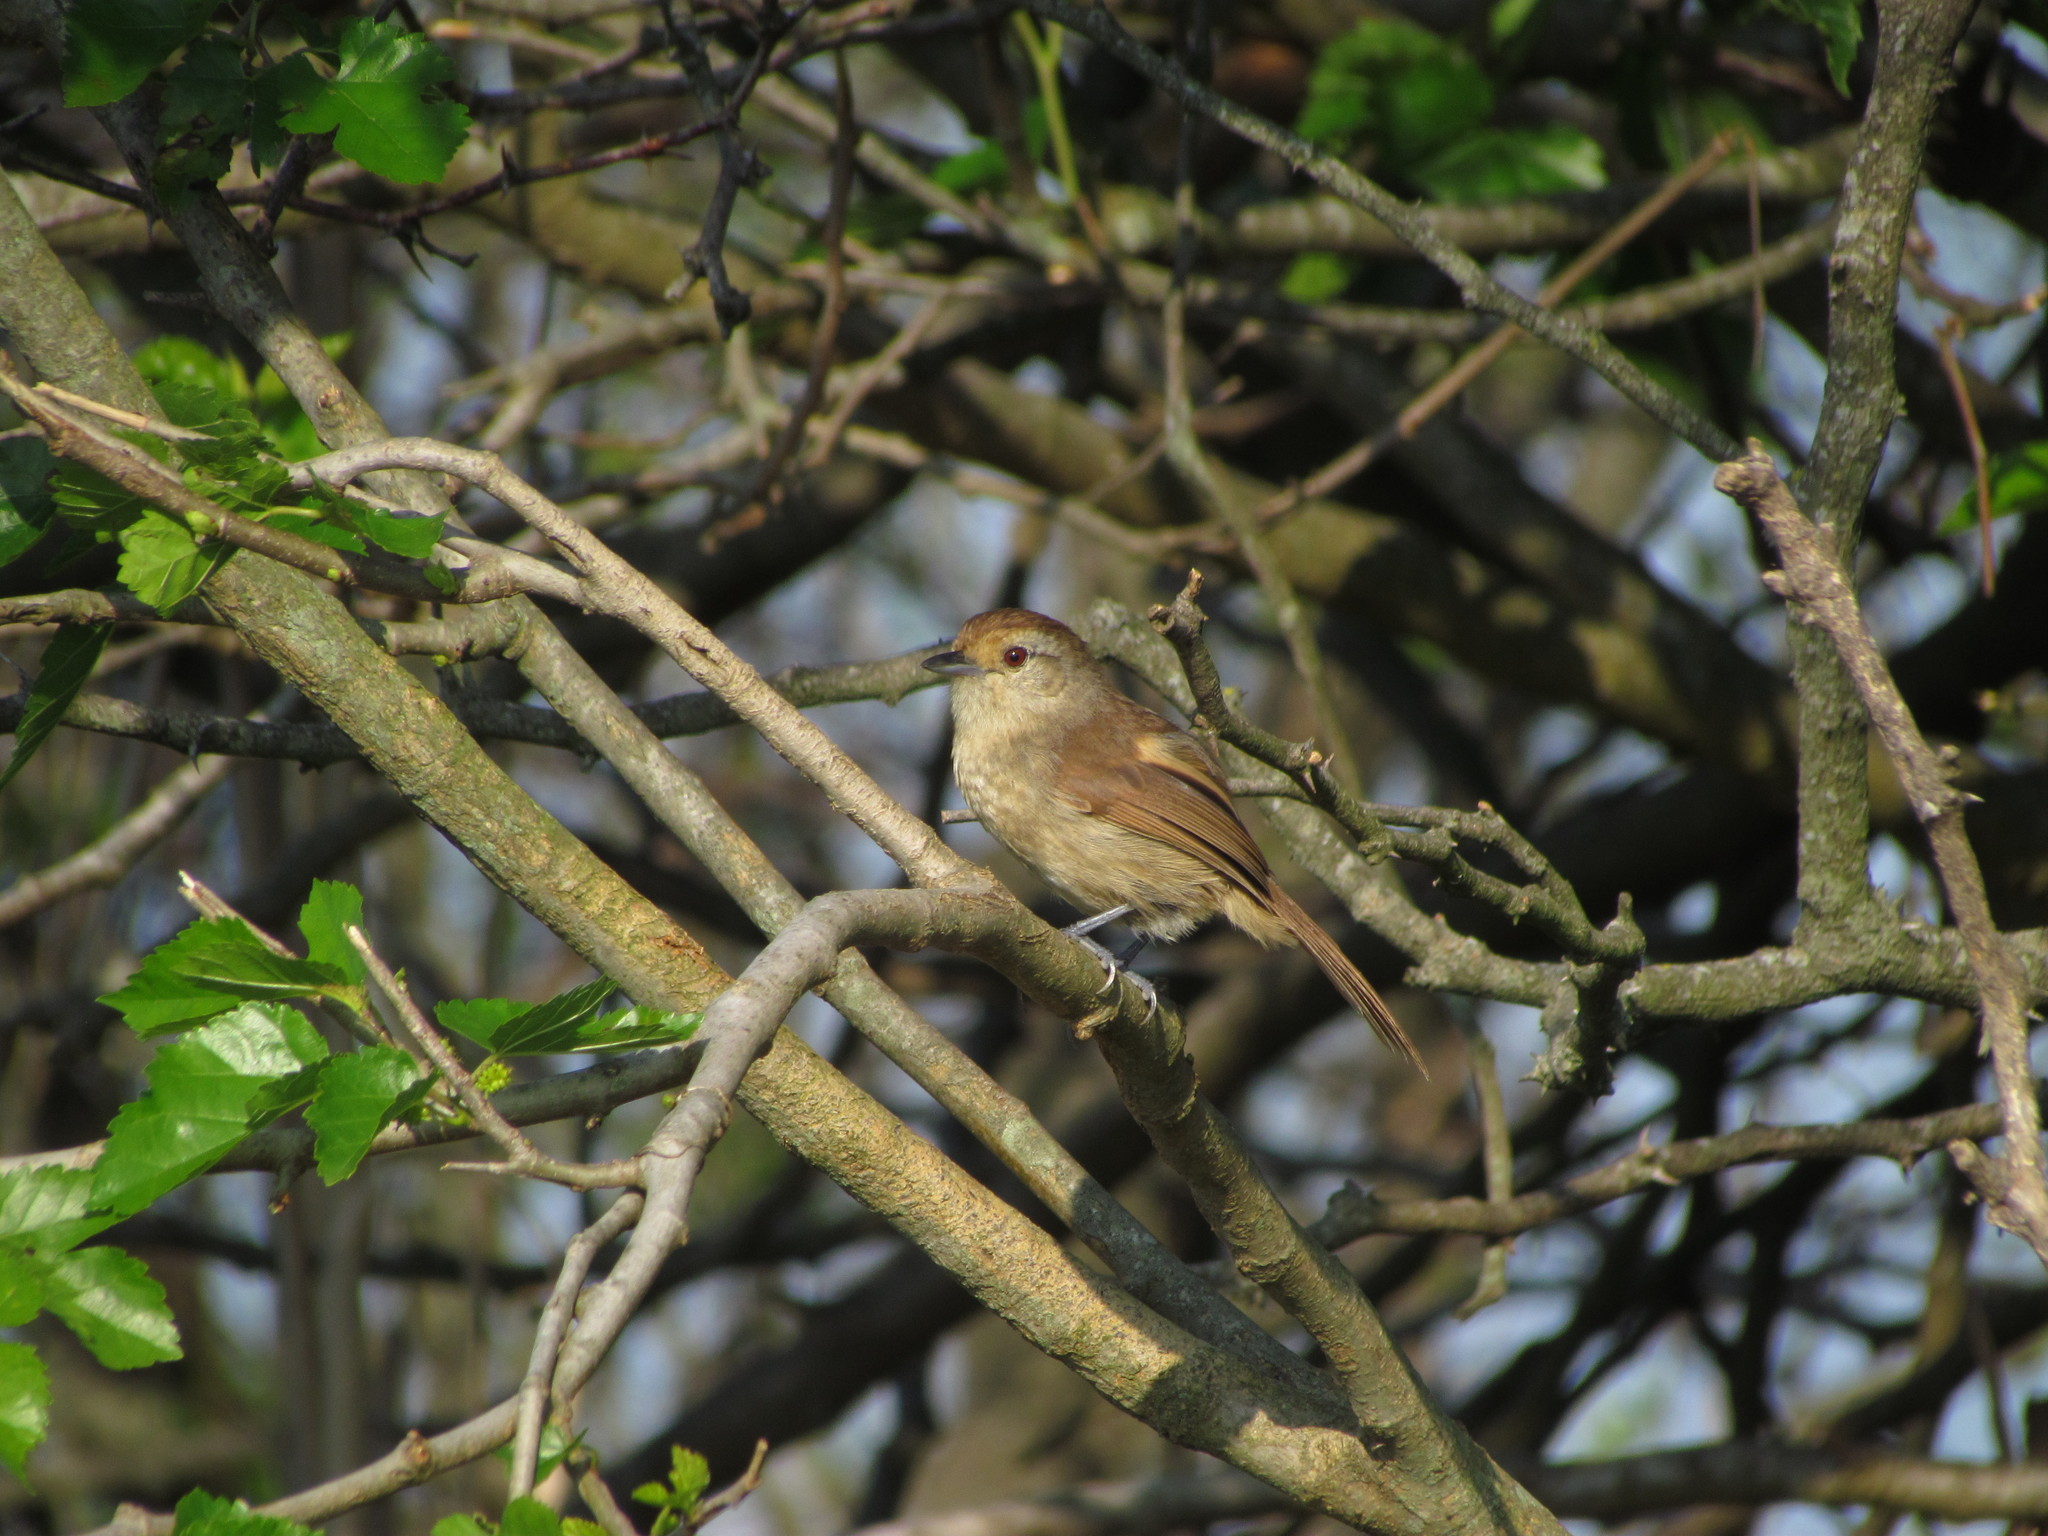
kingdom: Animalia
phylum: Chordata
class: Aves
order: Passeriformes
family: Thamnophilidae
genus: Thamnophilus
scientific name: Thamnophilus ruficapillus
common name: Rufous-capped antshrike
